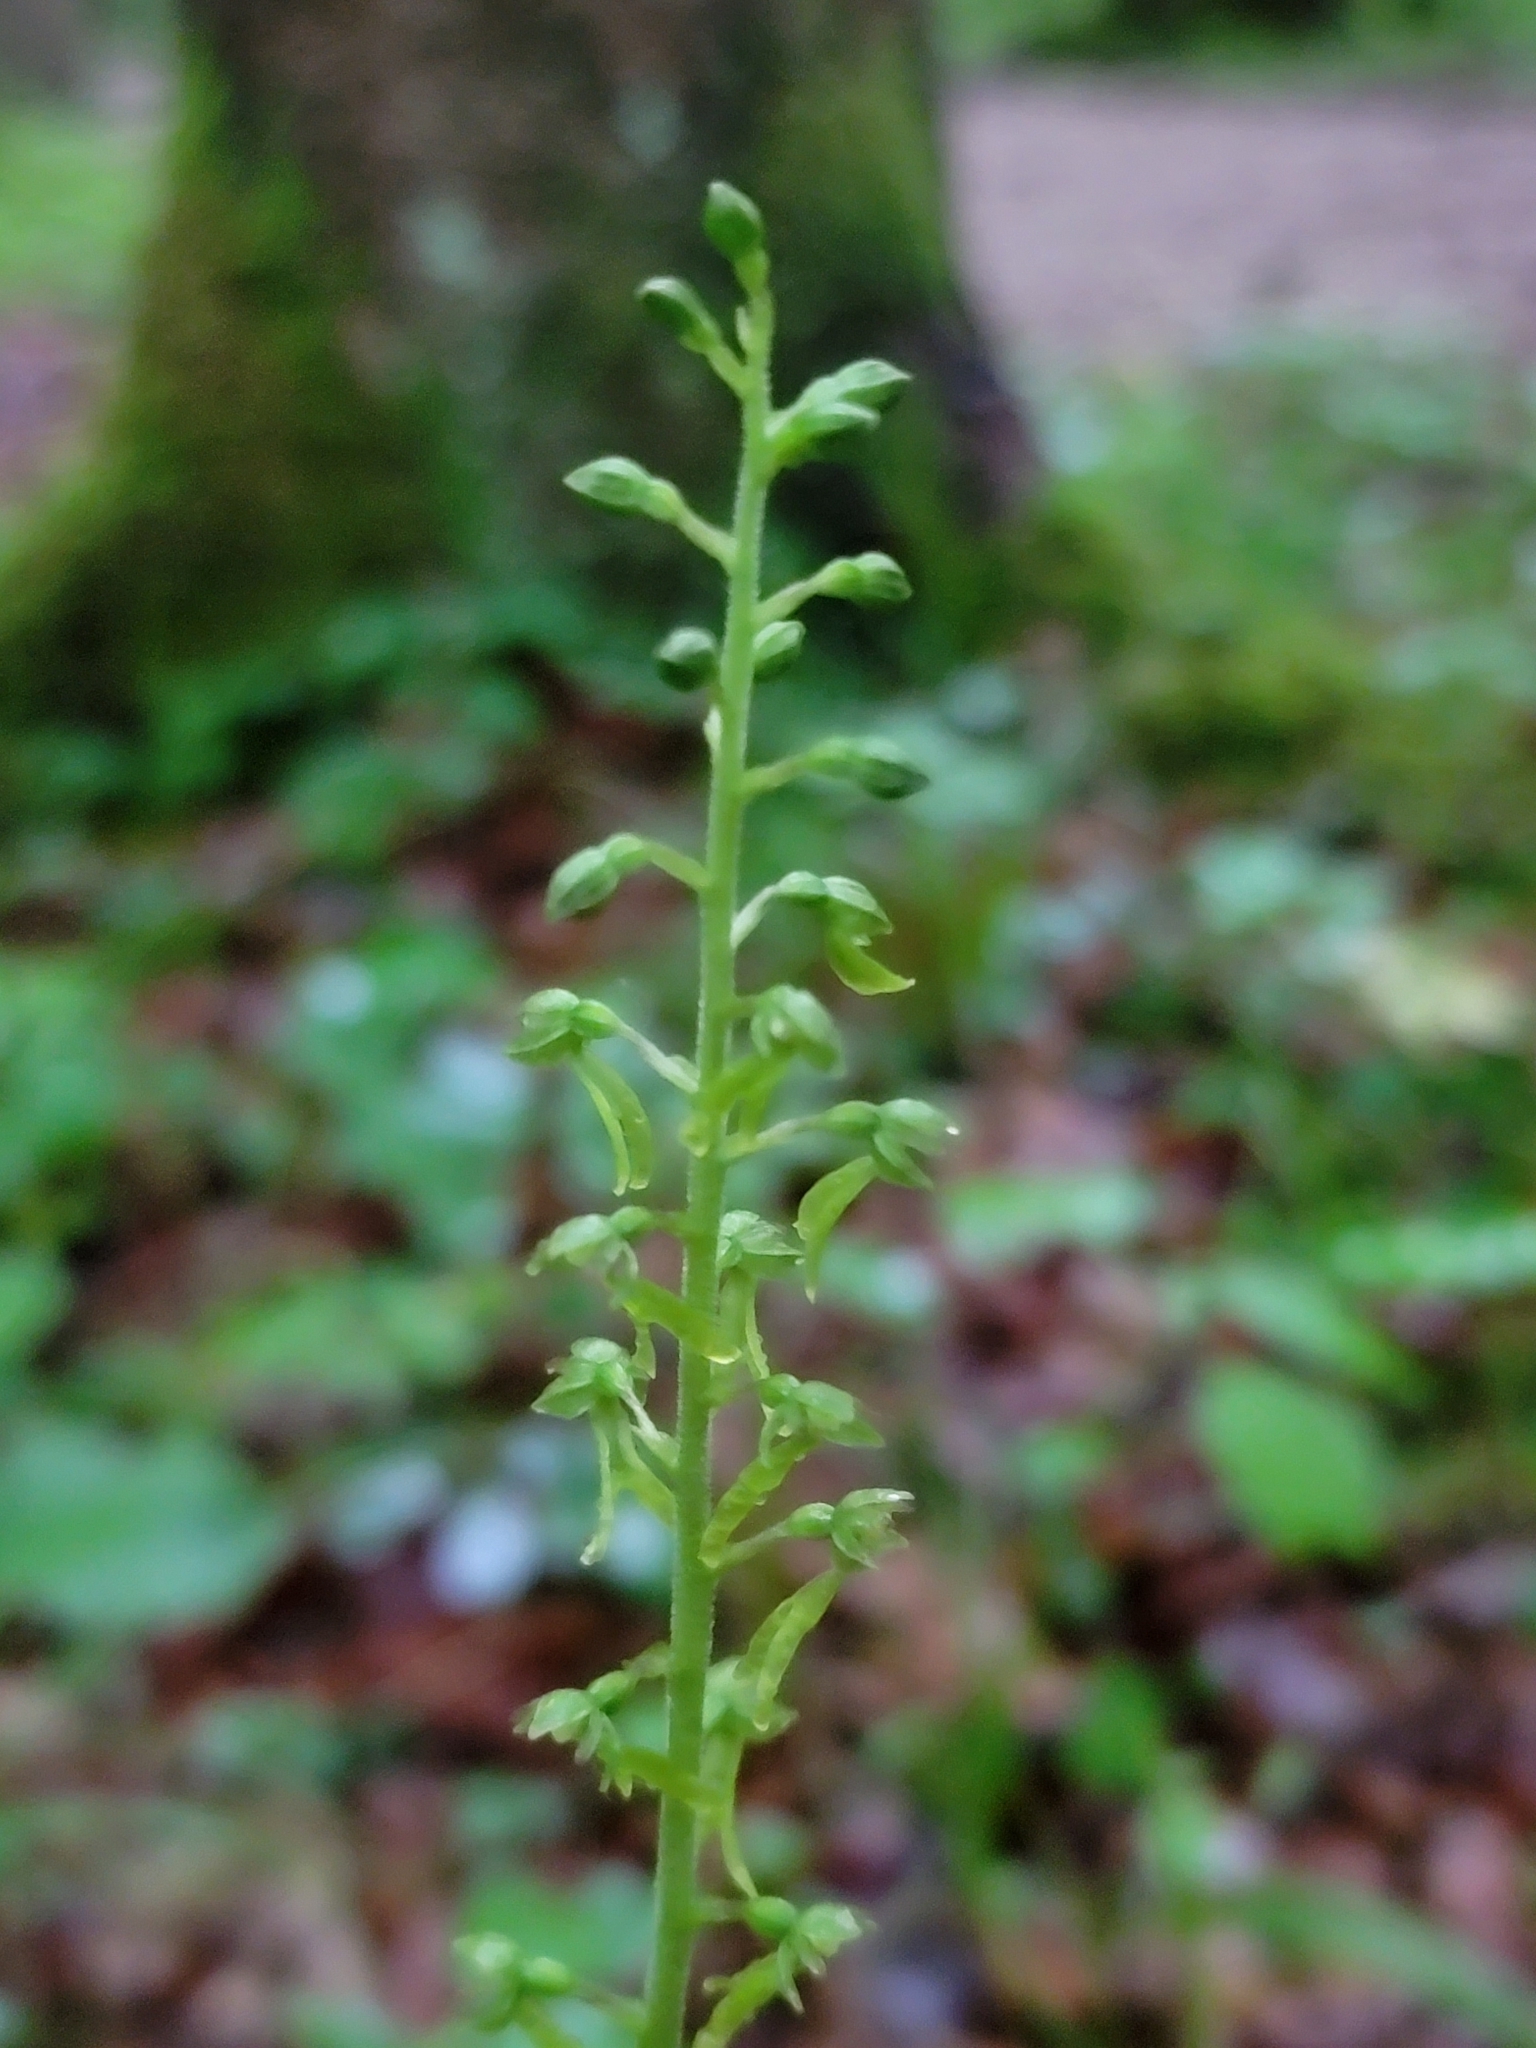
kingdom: Plantae
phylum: Tracheophyta
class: Liliopsida
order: Asparagales
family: Orchidaceae
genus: Neottia
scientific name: Neottia ovata
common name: Common twayblade
